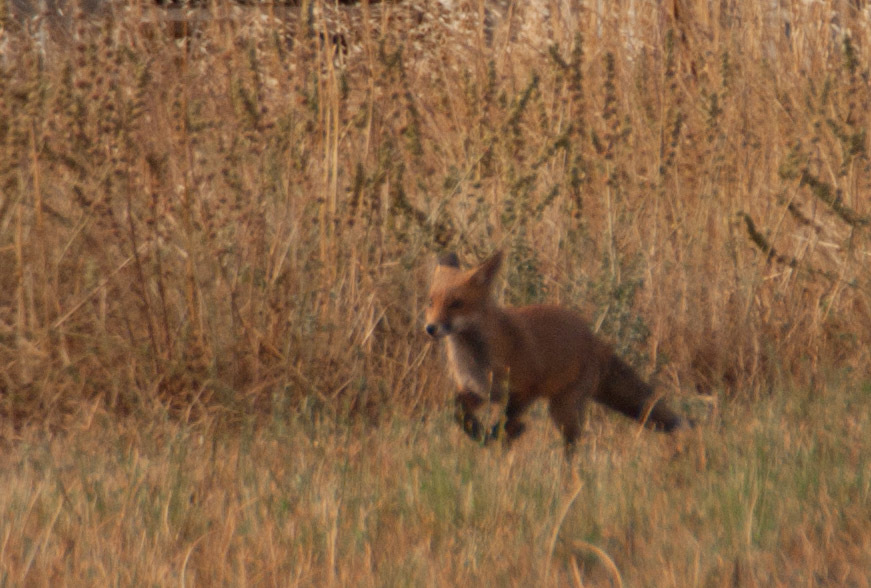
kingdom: Animalia
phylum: Chordata
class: Mammalia
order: Carnivora
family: Canidae
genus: Vulpes
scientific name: Vulpes vulpes
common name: Red fox
